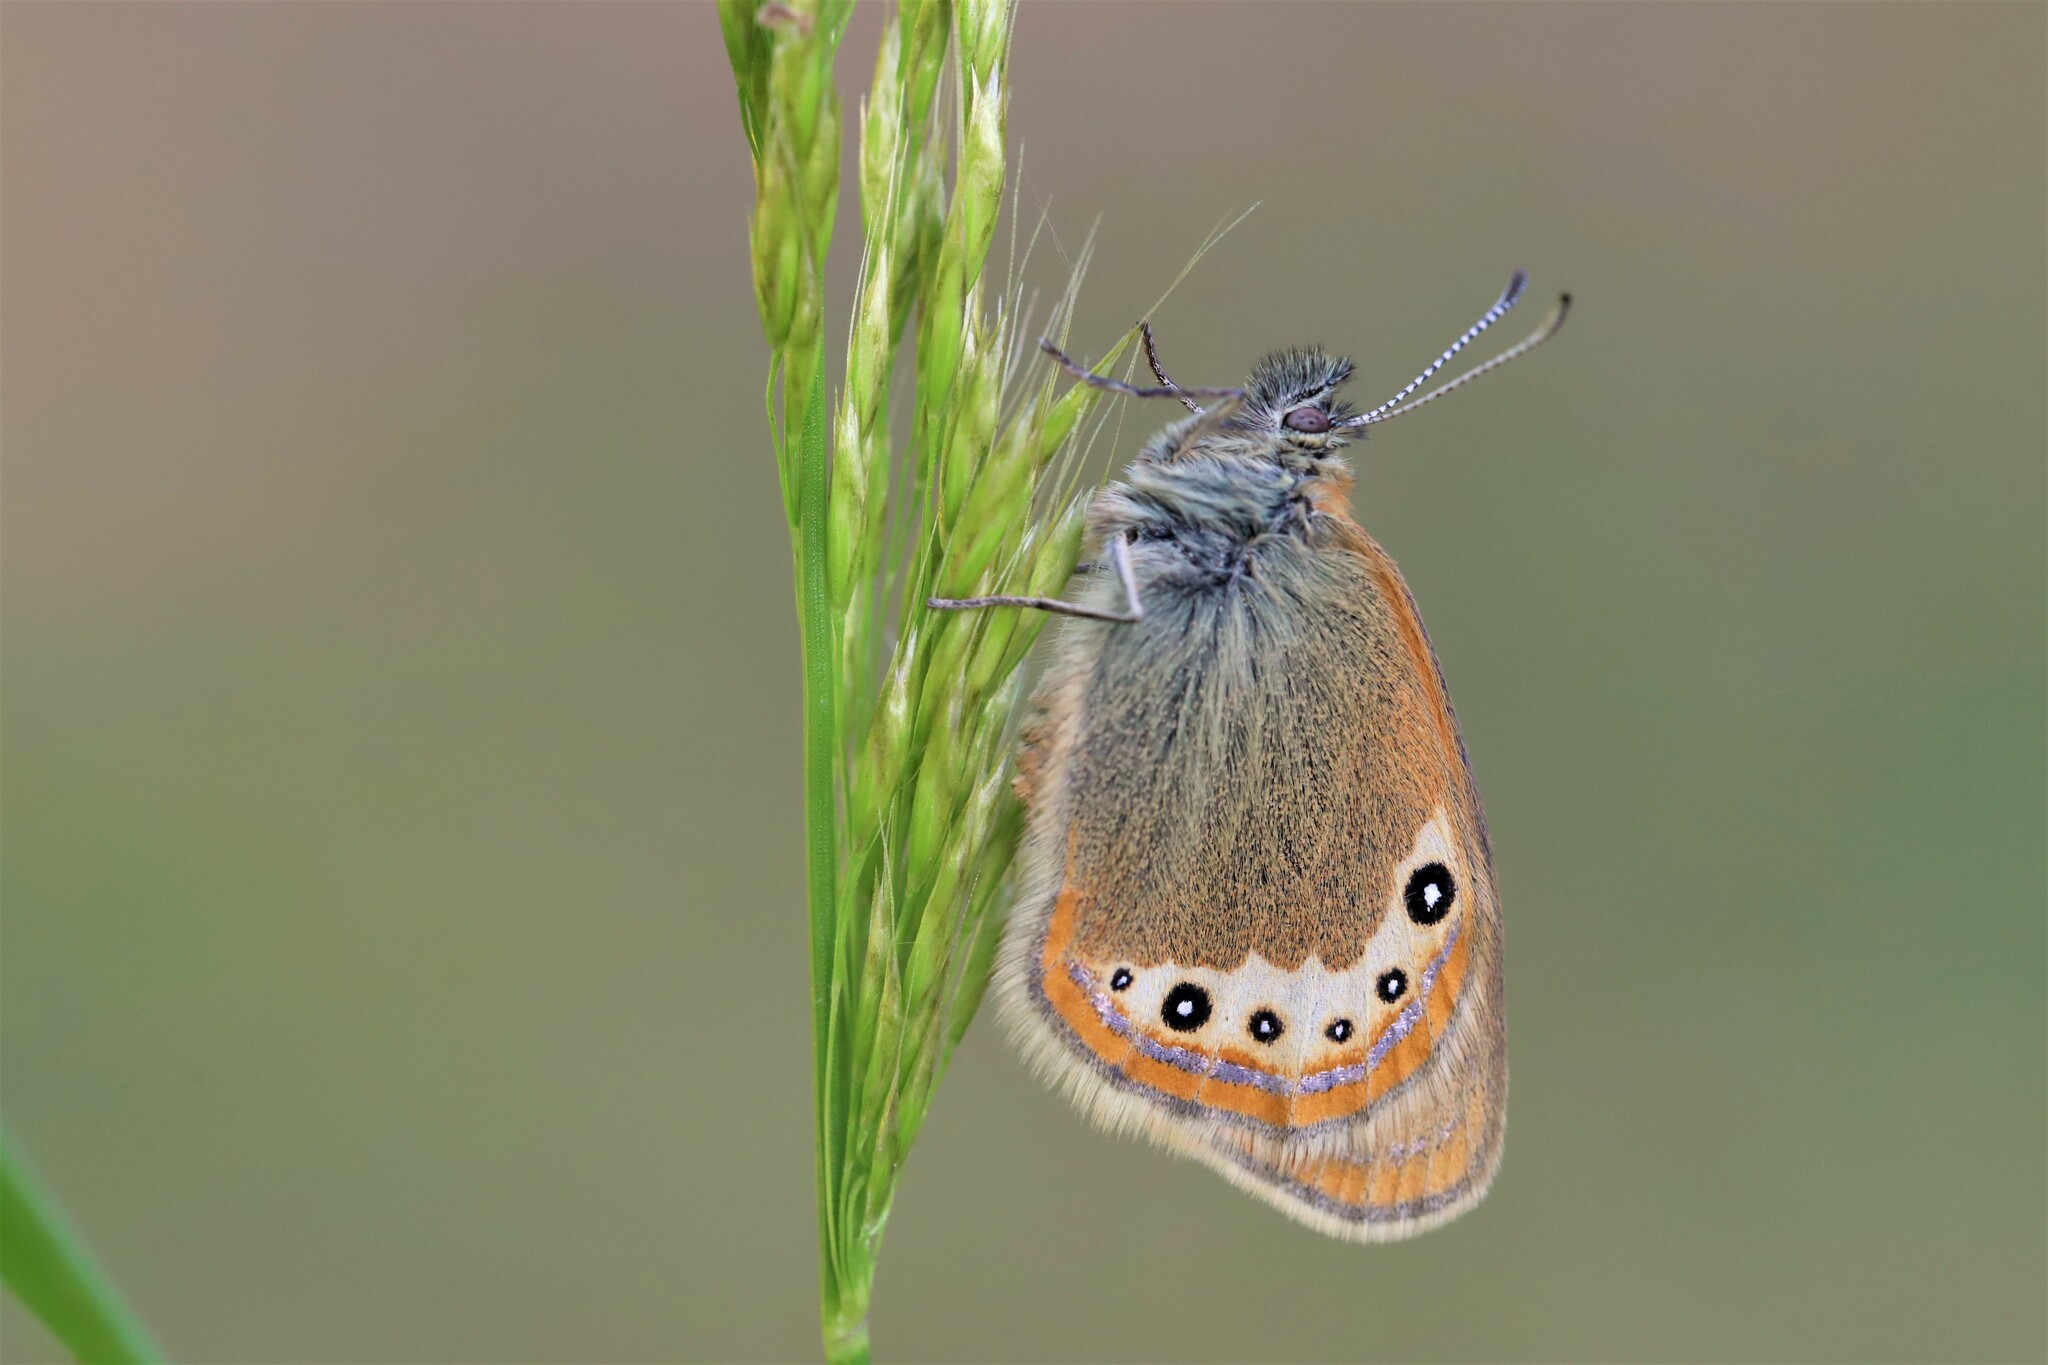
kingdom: Animalia
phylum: Arthropoda
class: Insecta
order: Lepidoptera
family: Nymphalidae
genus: Coenonympha
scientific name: Coenonympha
